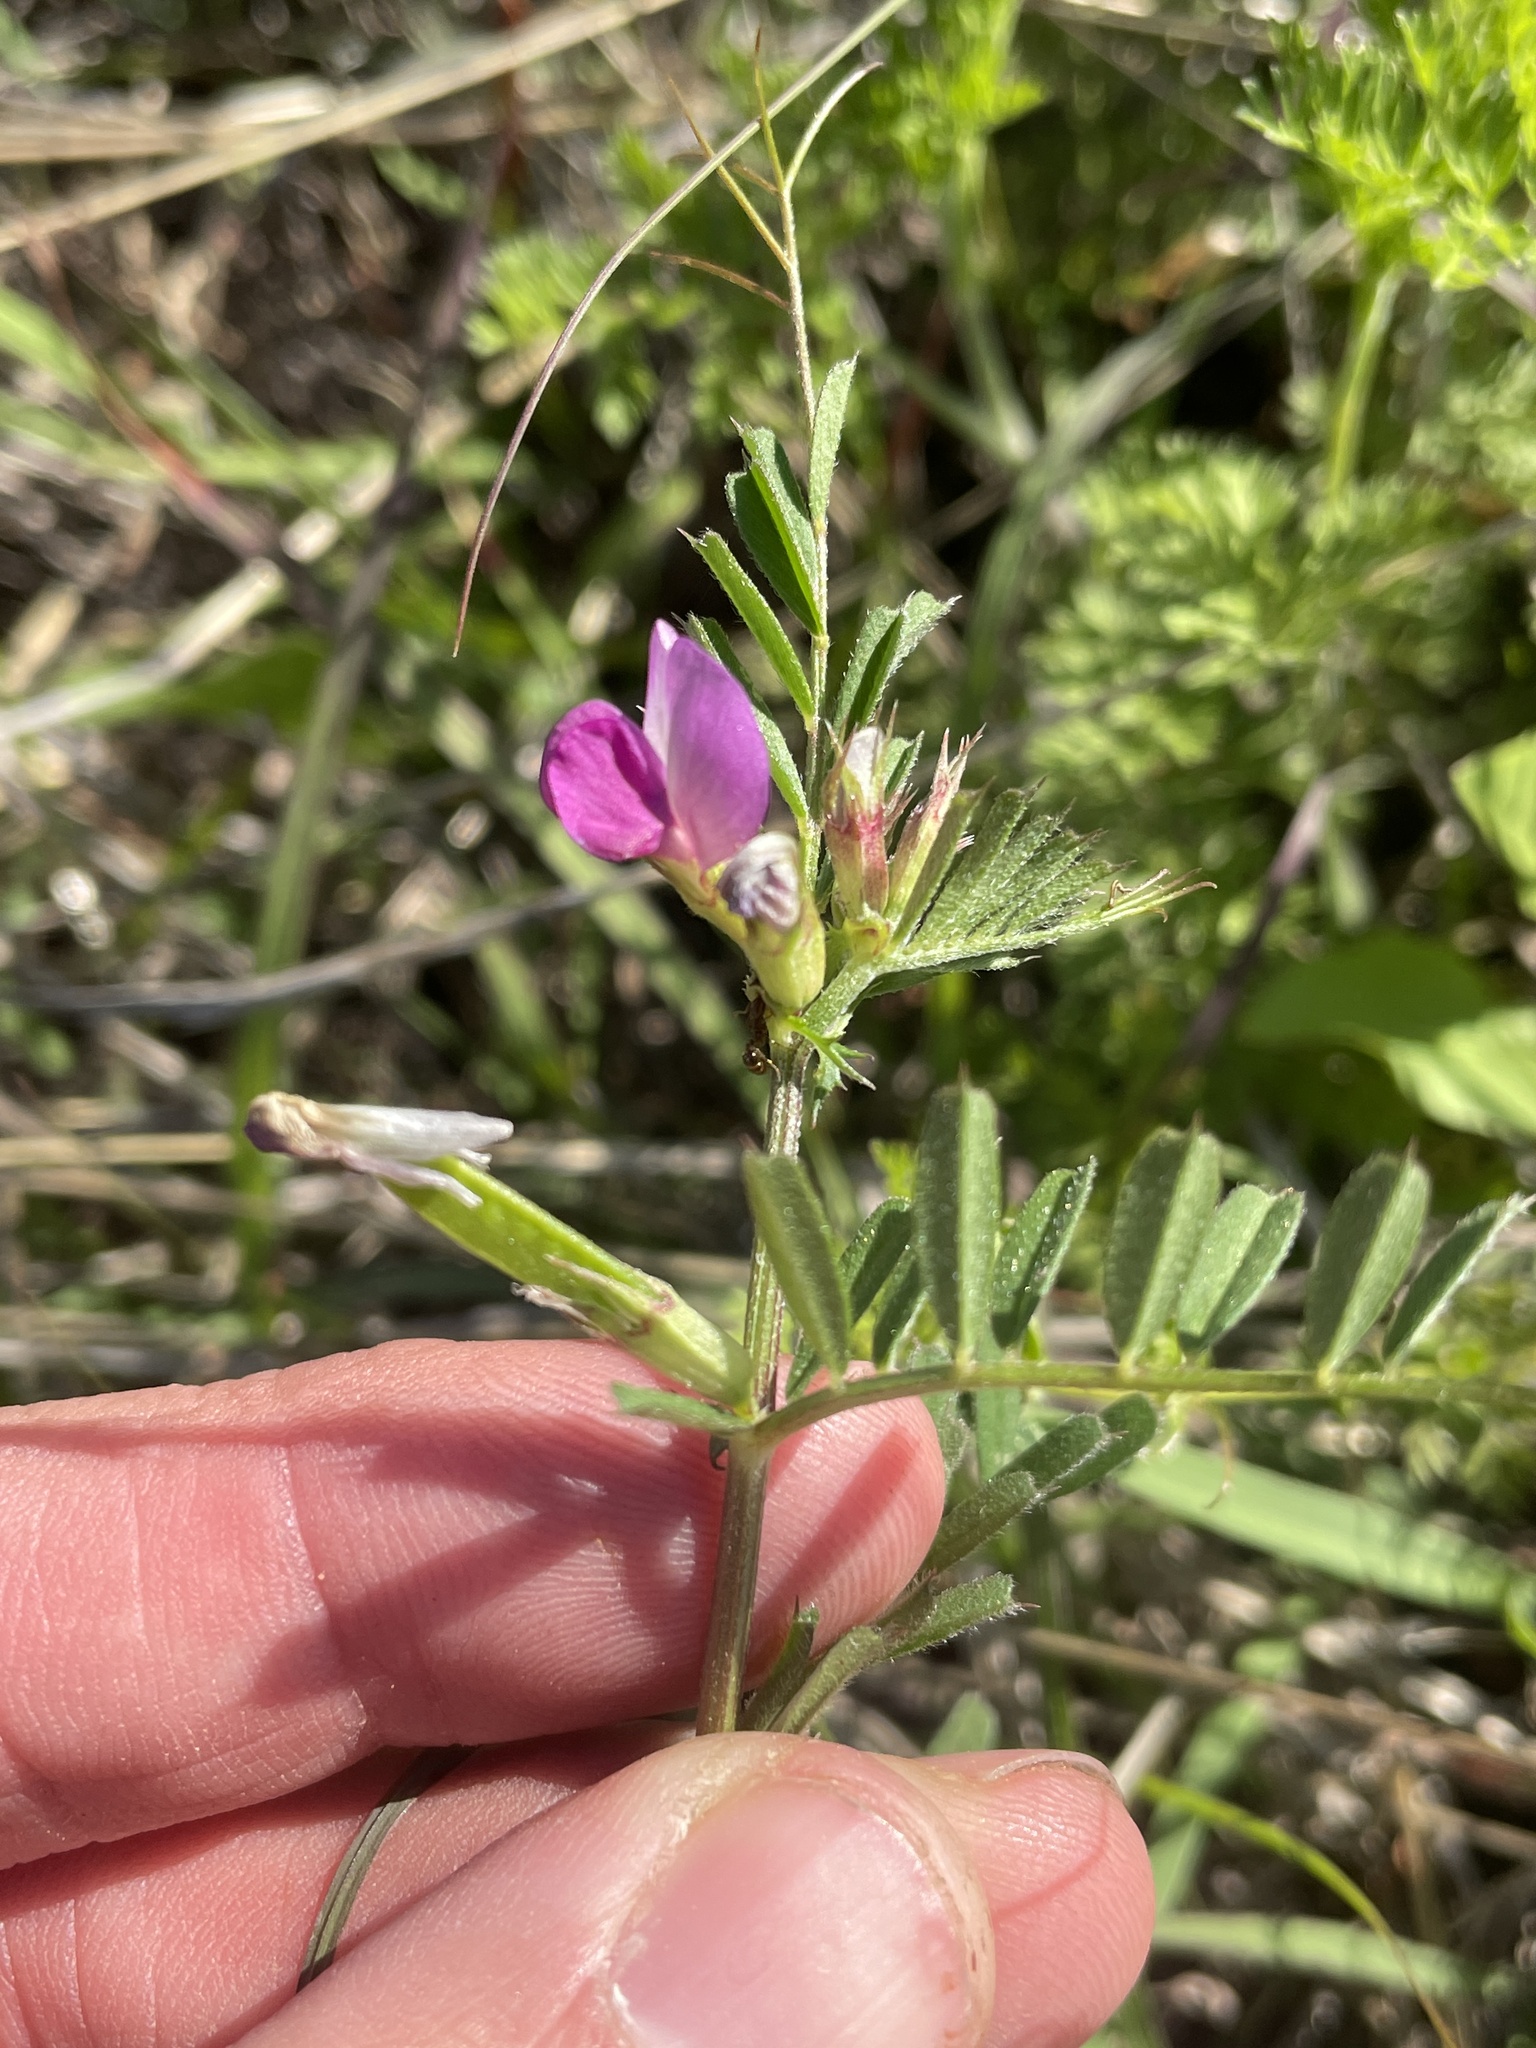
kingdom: Plantae
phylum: Tracheophyta
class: Magnoliopsida
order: Fabales
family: Fabaceae
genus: Vicia
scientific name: Vicia sativa
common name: Garden vetch
